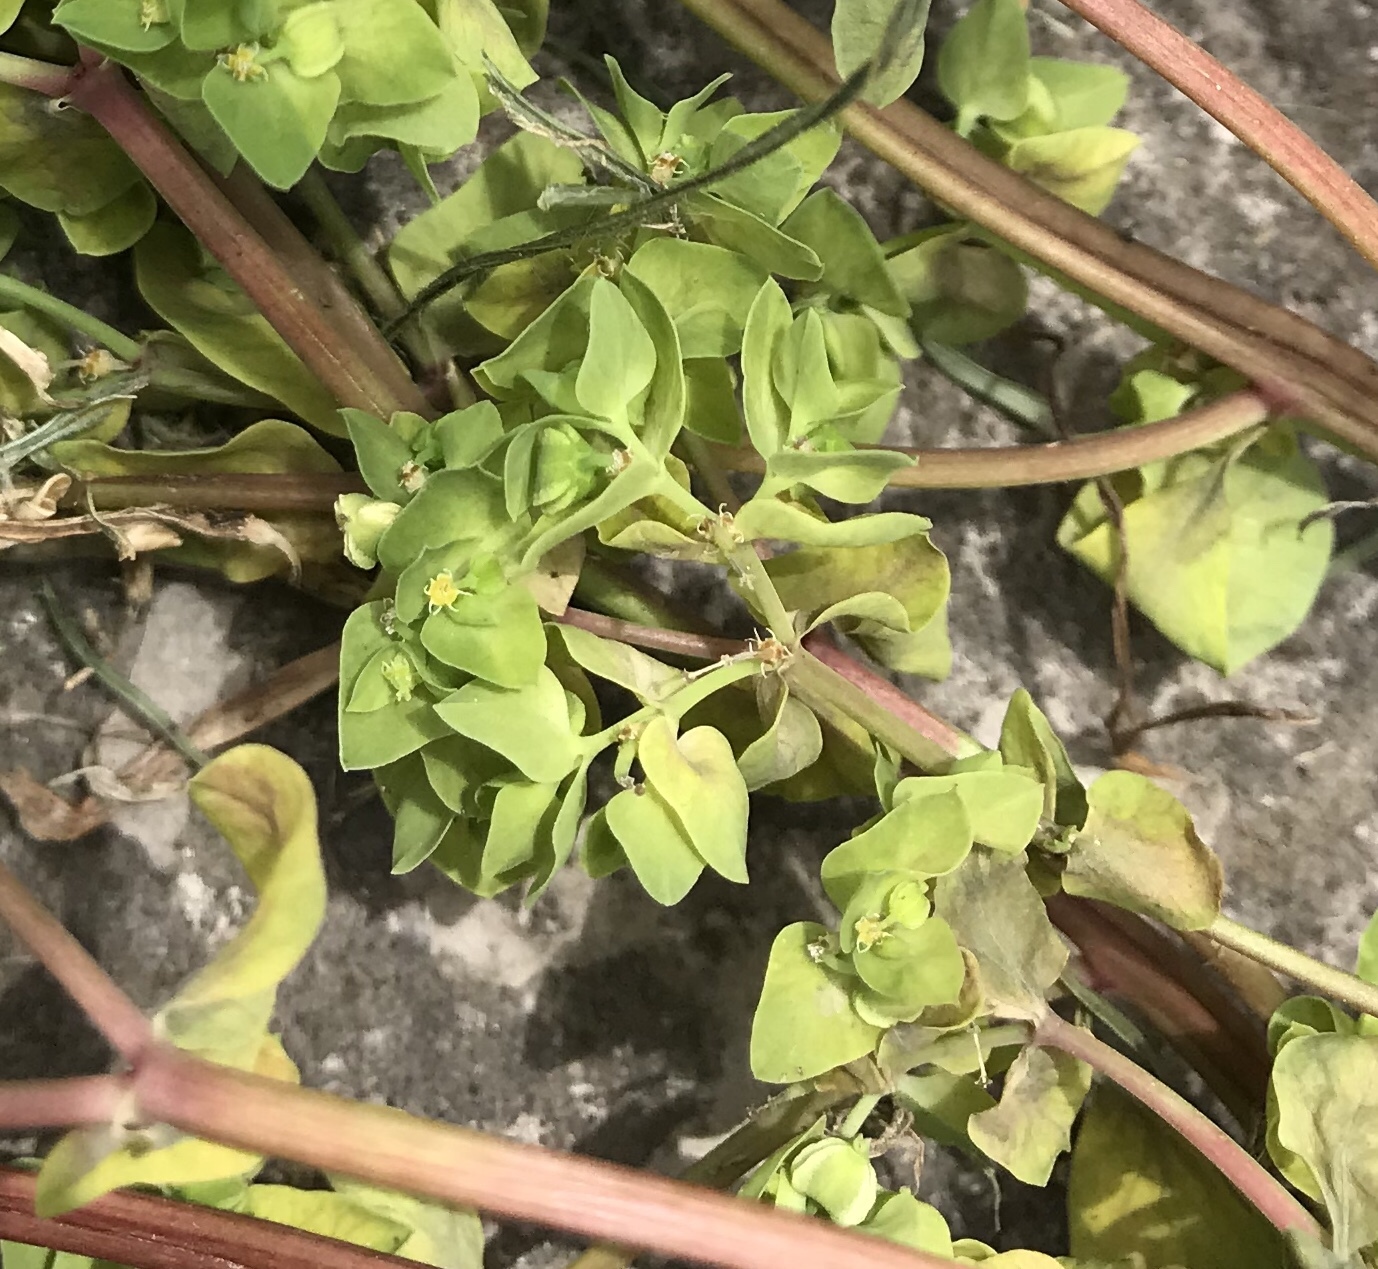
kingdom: Plantae
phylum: Tracheophyta
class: Magnoliopsida
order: Malpighiales
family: Euphorbiaceae
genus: Euphorbia
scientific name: Euphorbia peplus
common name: Petty spurge
